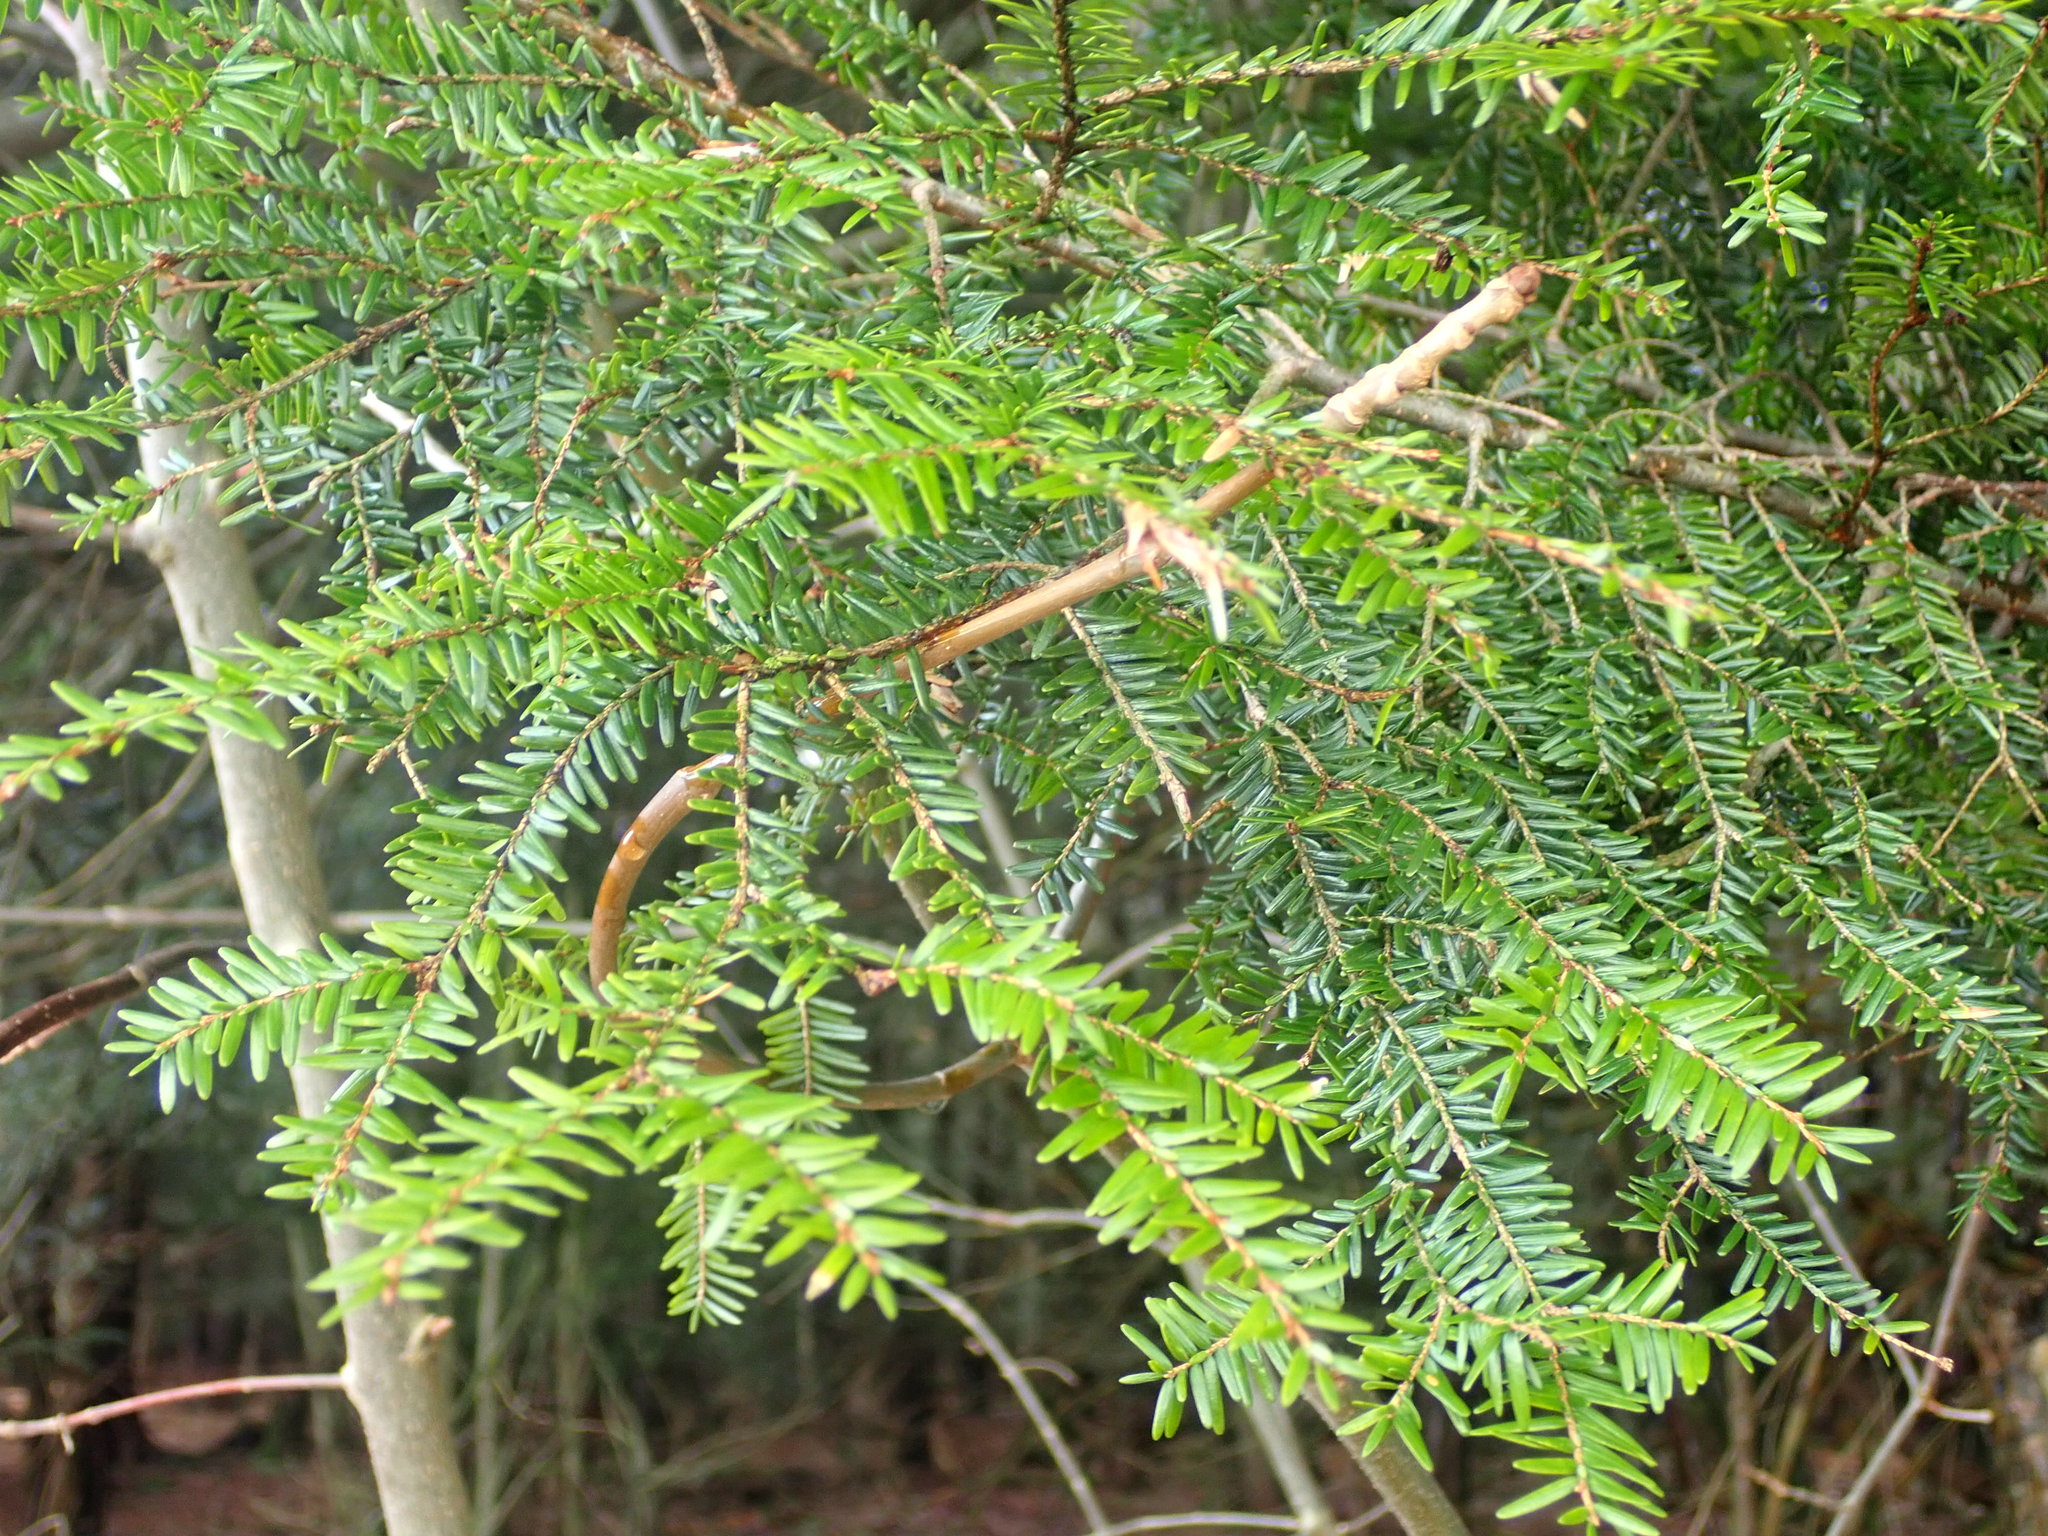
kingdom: Plantae
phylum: Tracheophyta
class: Pinopsida
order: Pinales
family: Pinaceae
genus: Tsuga
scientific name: Tsuga canadensis
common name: Eastern hemlock
